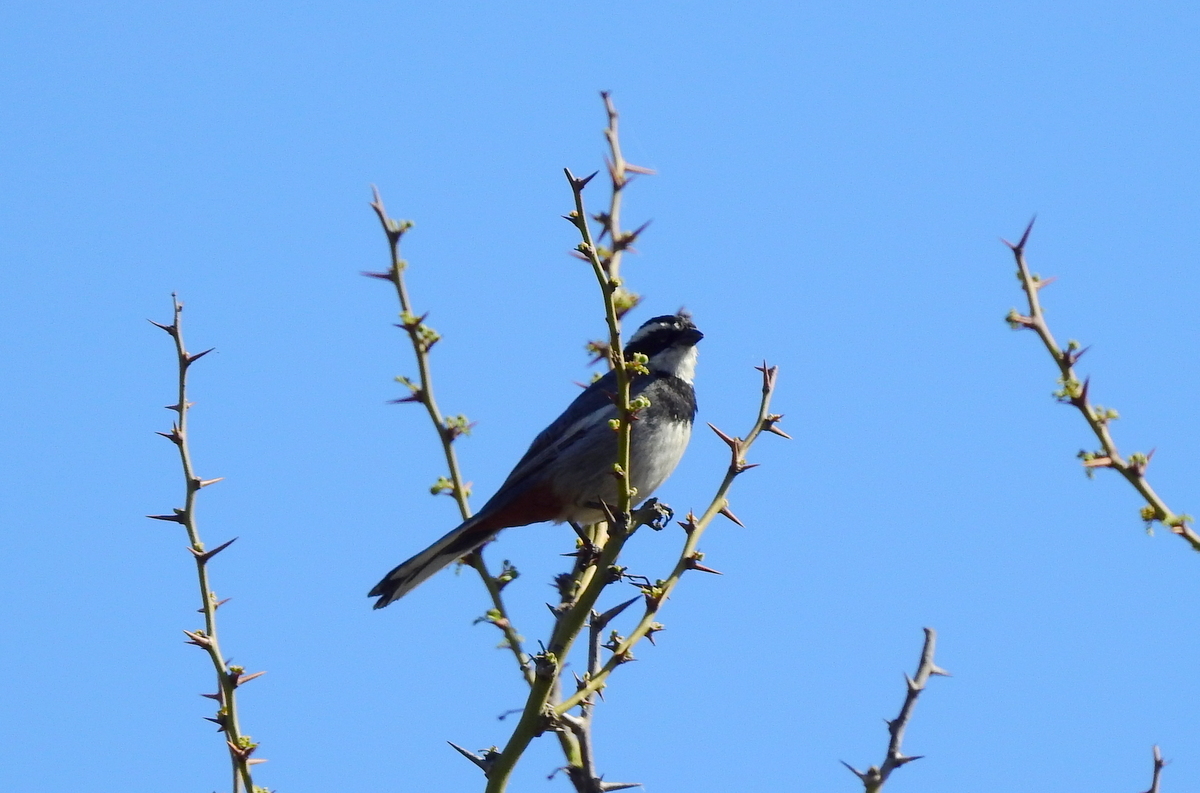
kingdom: Animalia
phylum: Chordata
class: Aves
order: Passeriformes
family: Thraupidae
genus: Microspingus
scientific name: Microspingus torquatus
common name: Ringed warbling-finch
